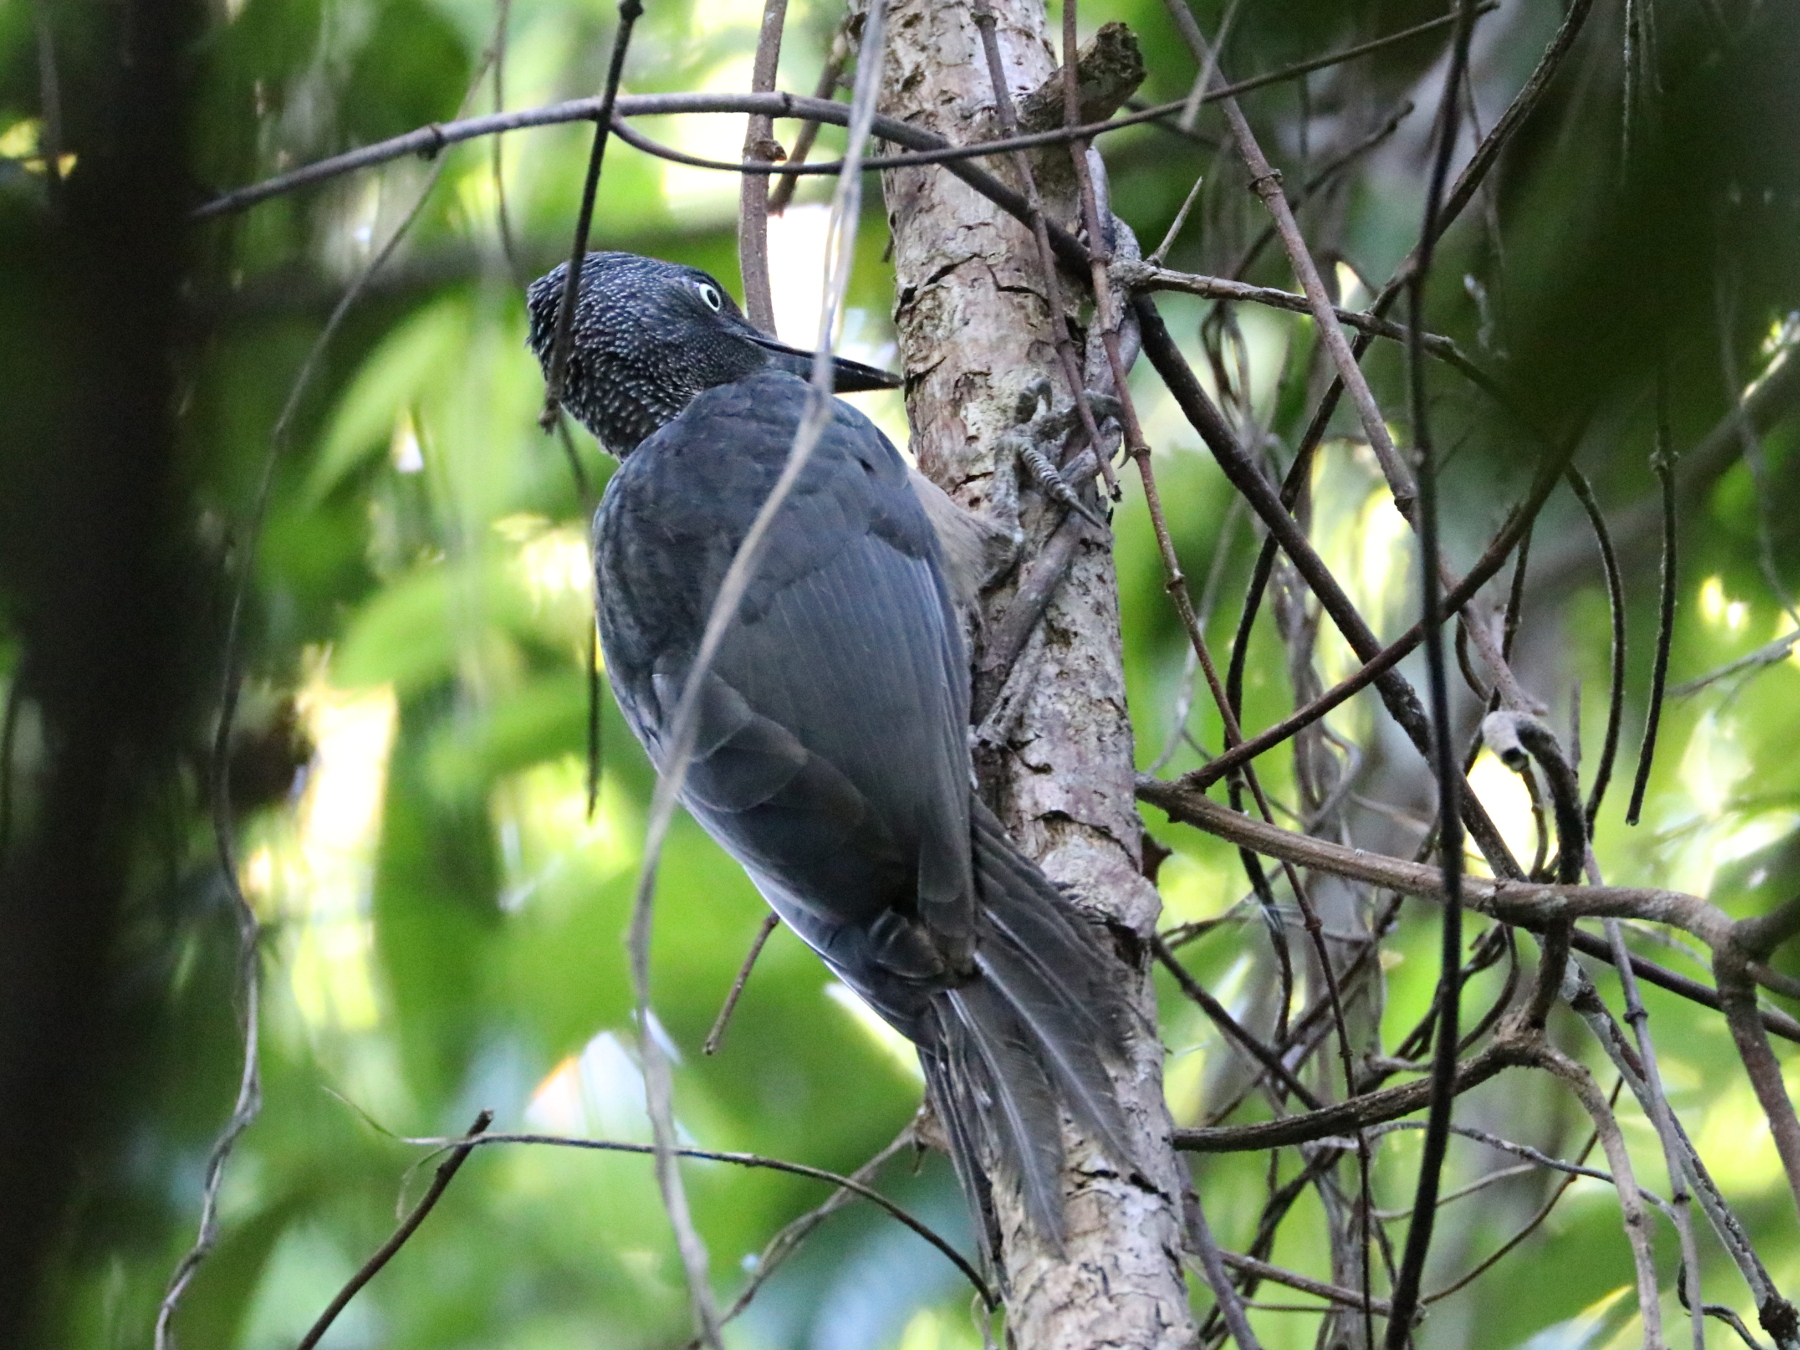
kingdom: Animalia
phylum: Chordata
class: Aves
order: Piciformes
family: Picidae
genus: Mulleripicus
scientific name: Mulleripicus fulvus
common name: Ashy woodpecker
